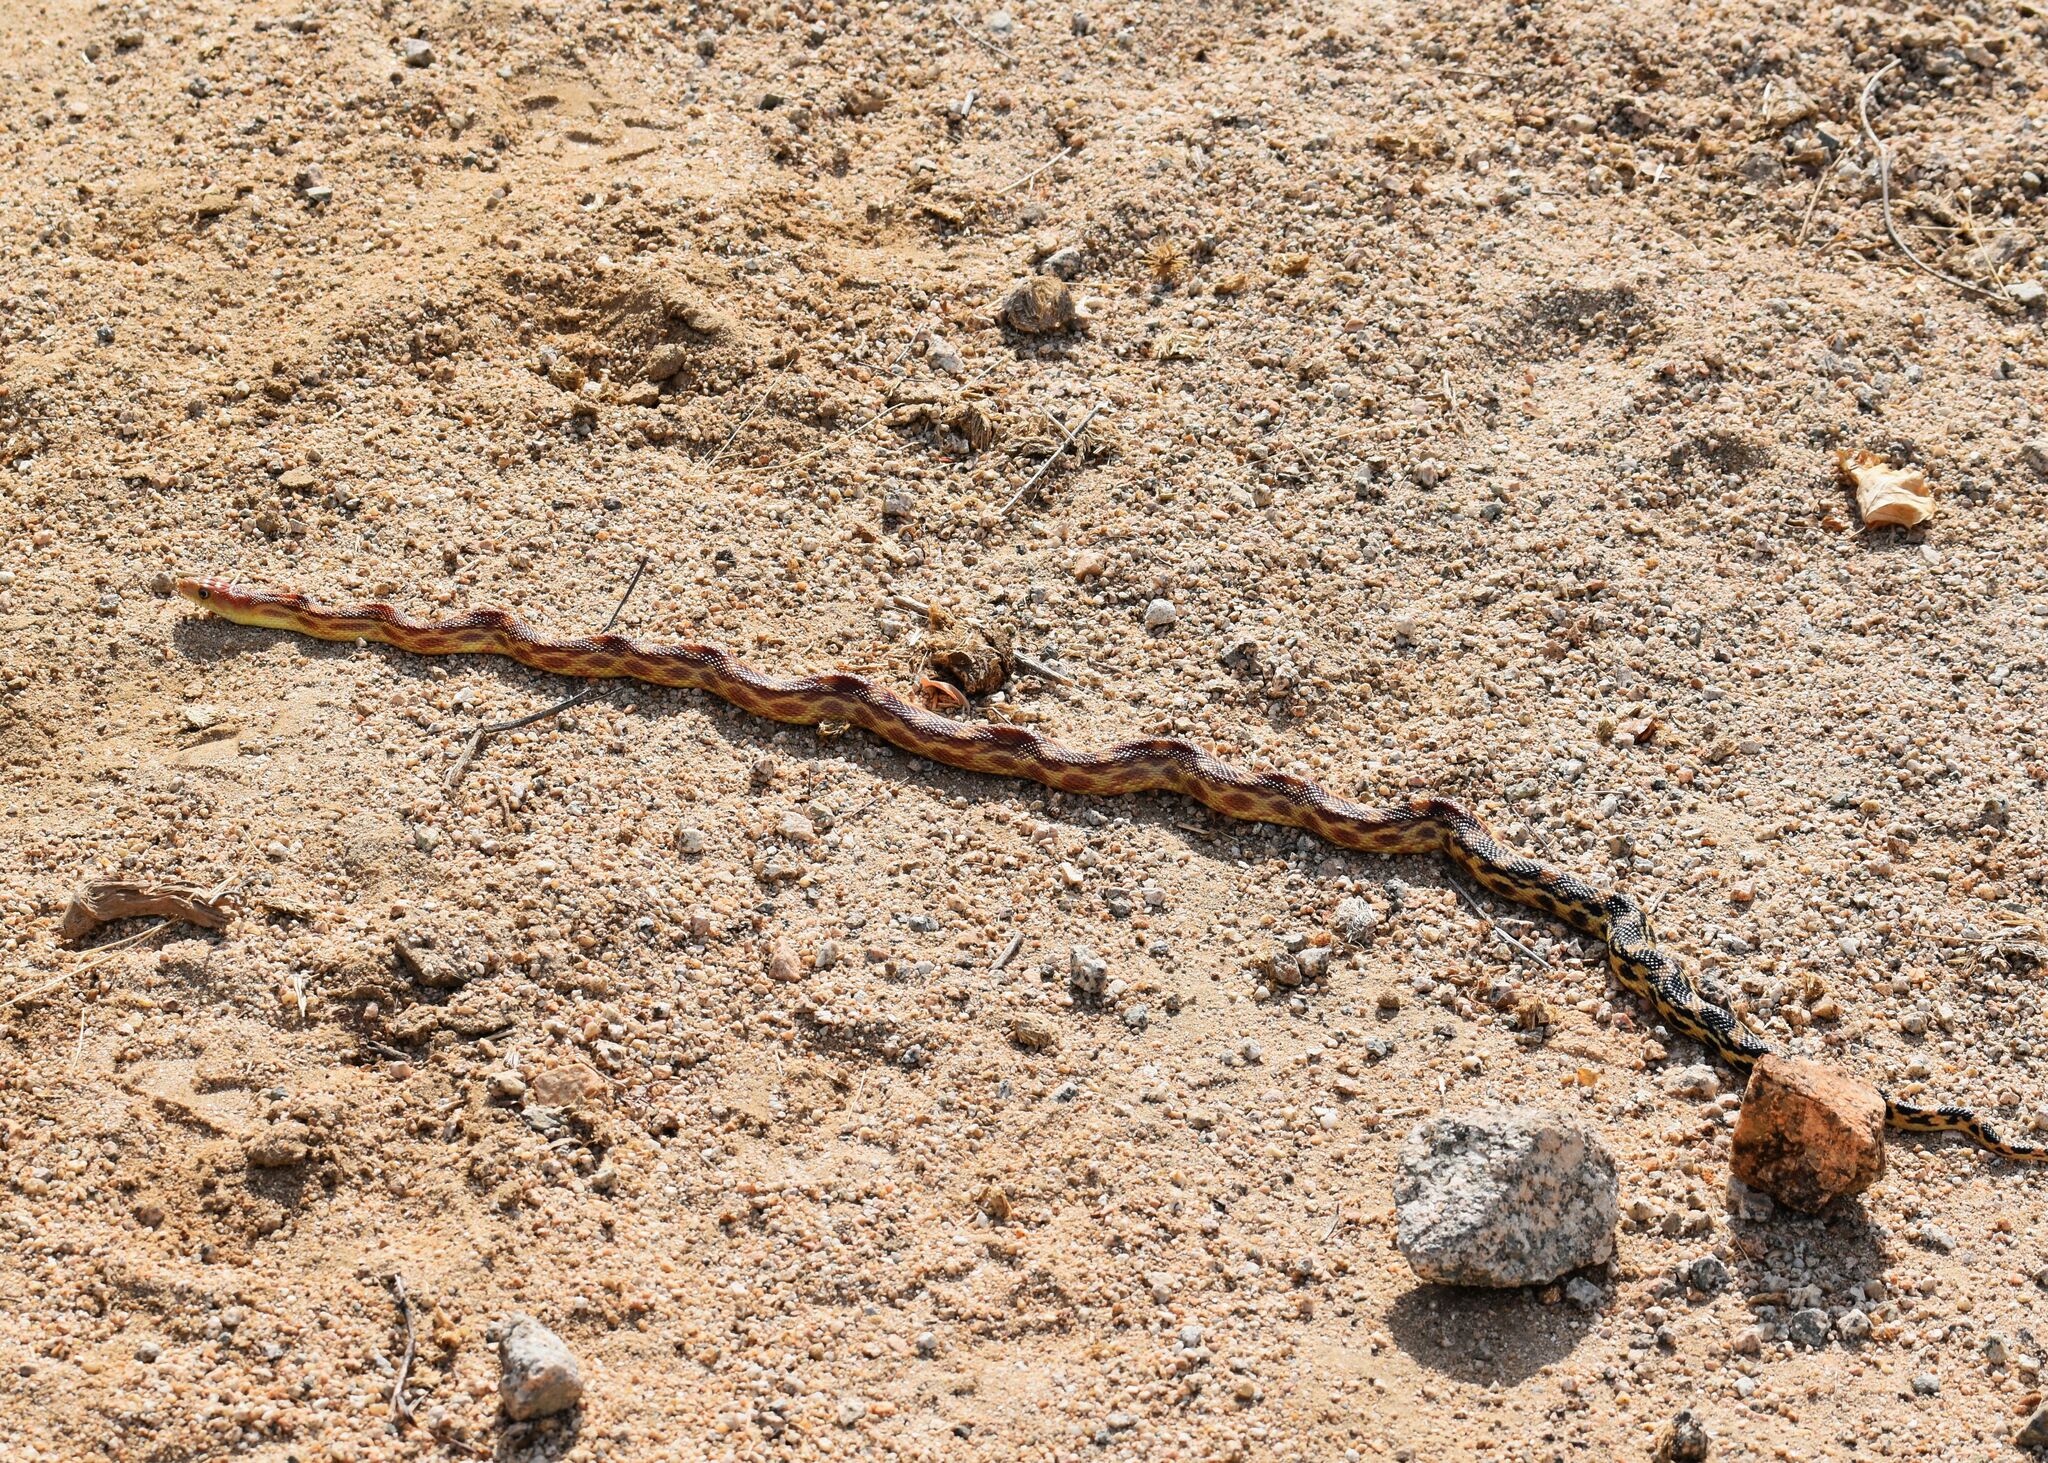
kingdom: Animalia
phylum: Chordata
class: Squamata
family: Colubridae
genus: Pituophis
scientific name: Pituophis vertebralis
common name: Cape gopher snake
